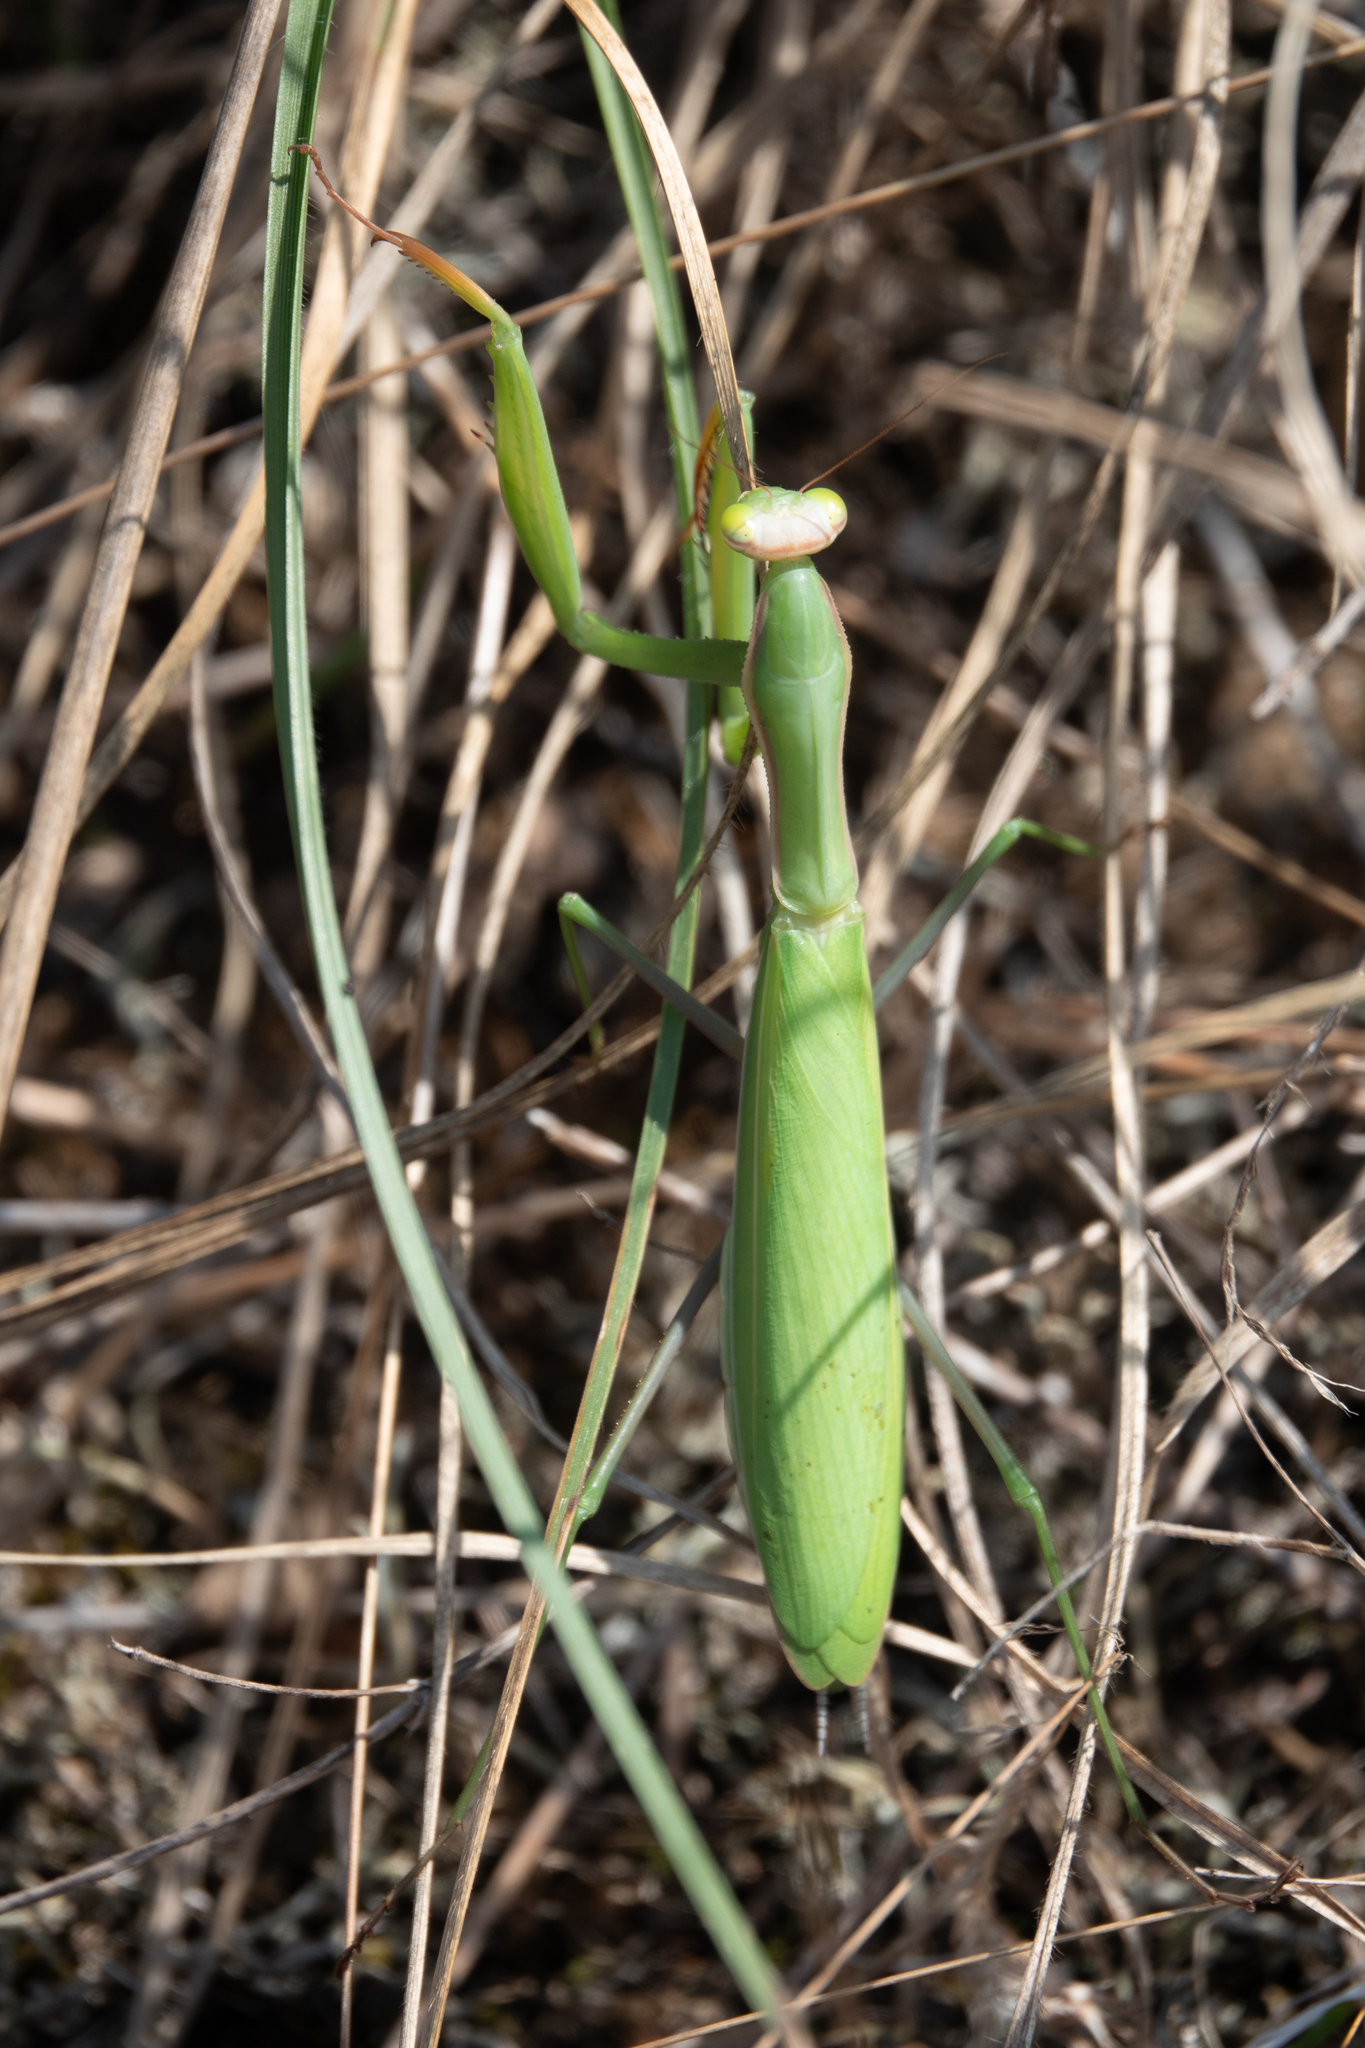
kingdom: Animalia
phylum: Arthropoda
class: Insecta
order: Mantodea
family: Mantidae
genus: Mantis
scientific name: Mantis religiosa
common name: Praying mantis
